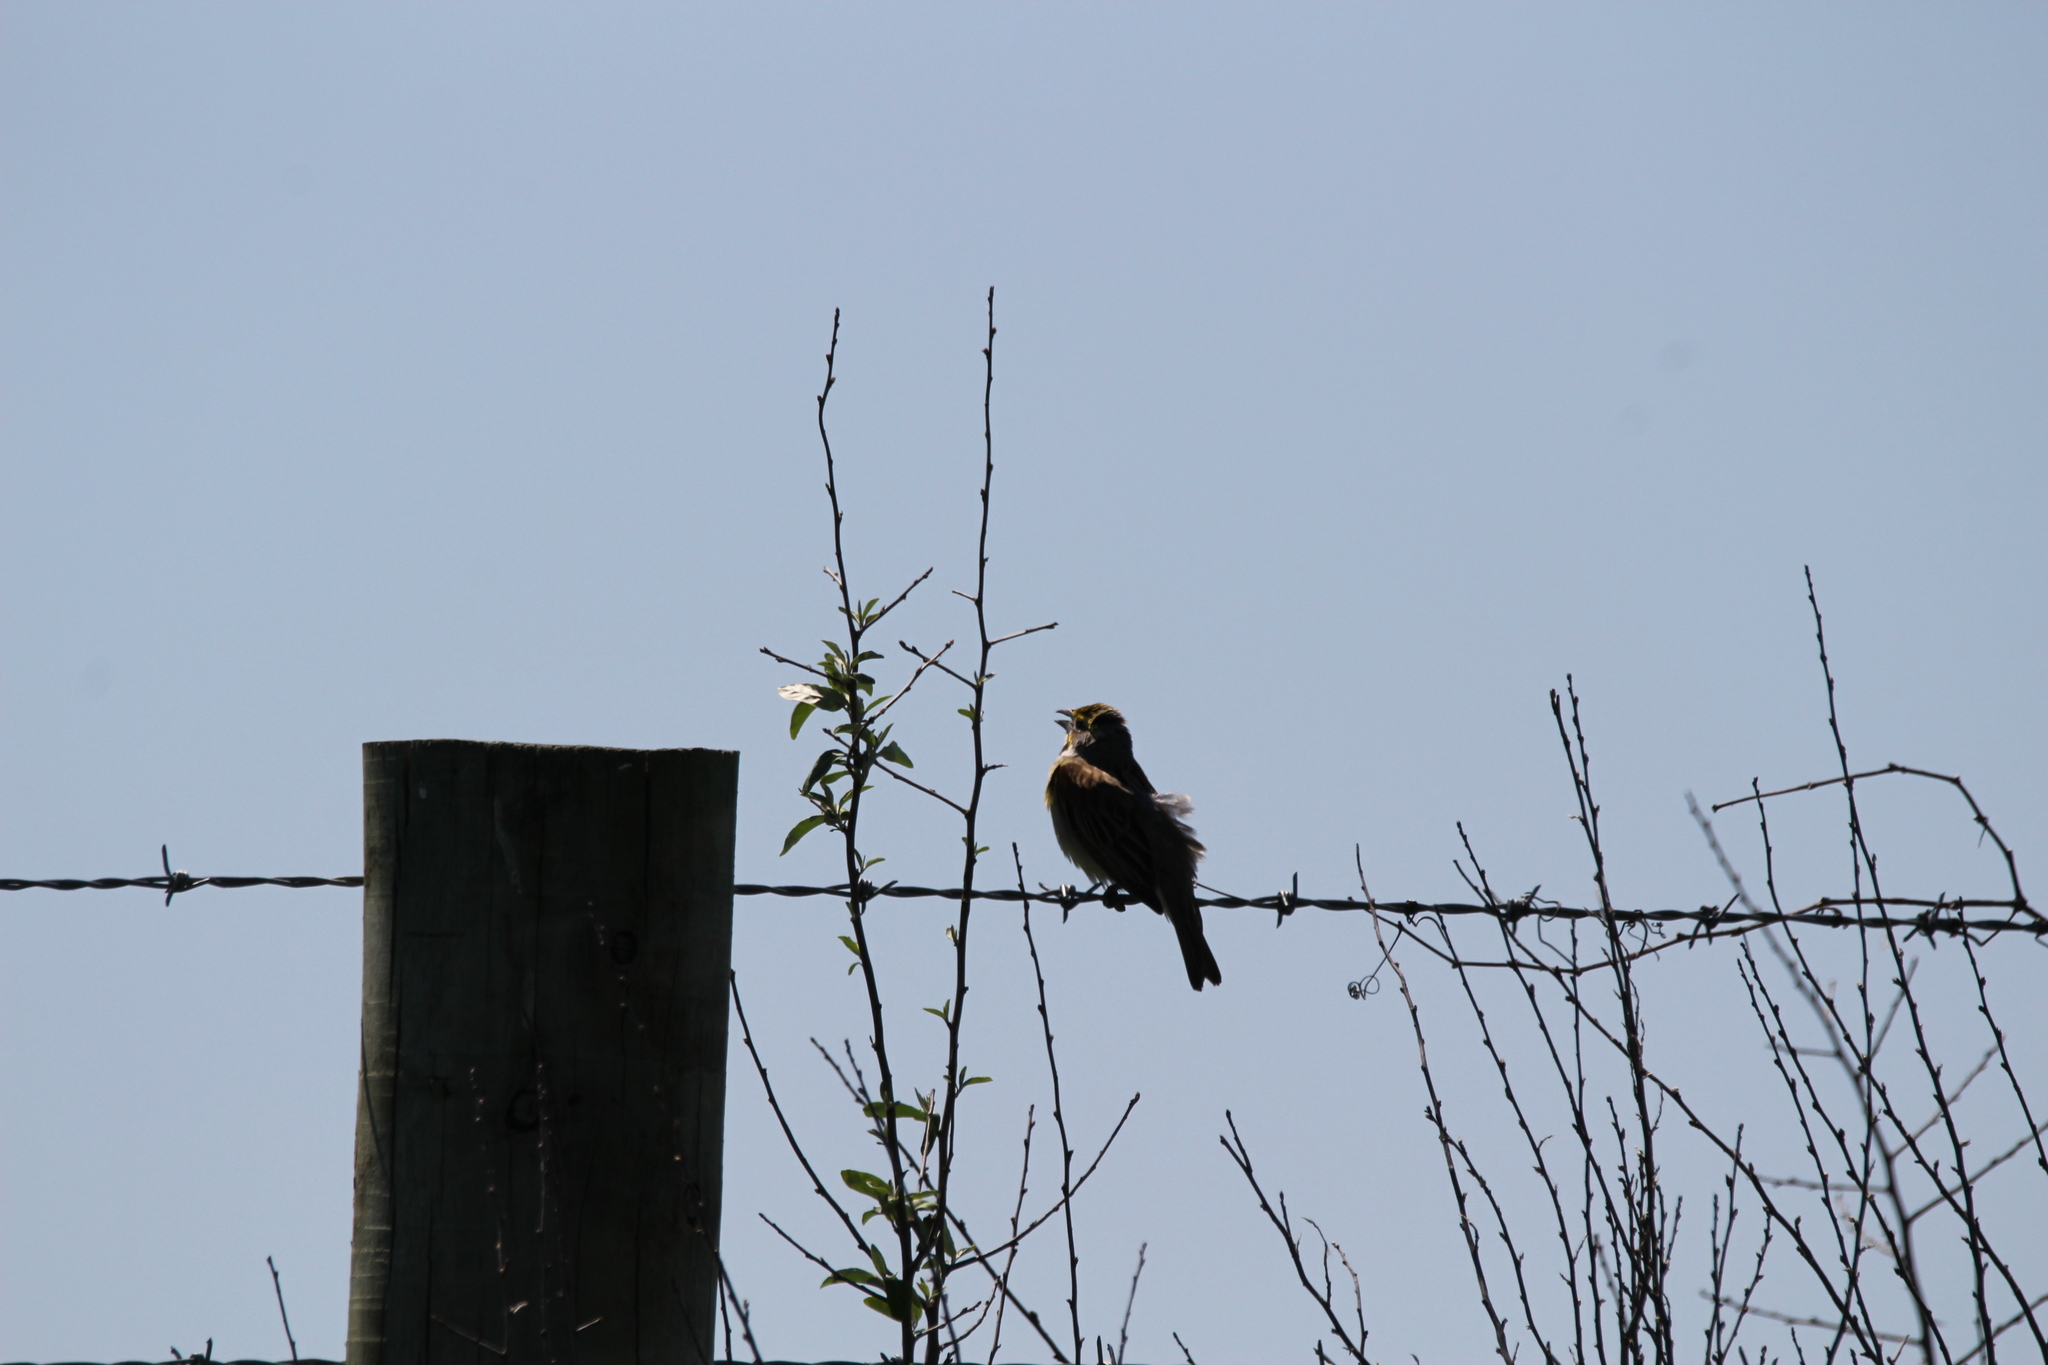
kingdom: Animalia
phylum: Chordata
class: Aves
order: Passeriformes
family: Cardinalidae
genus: Spiza
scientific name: Spiza americana
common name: Dickcissel
